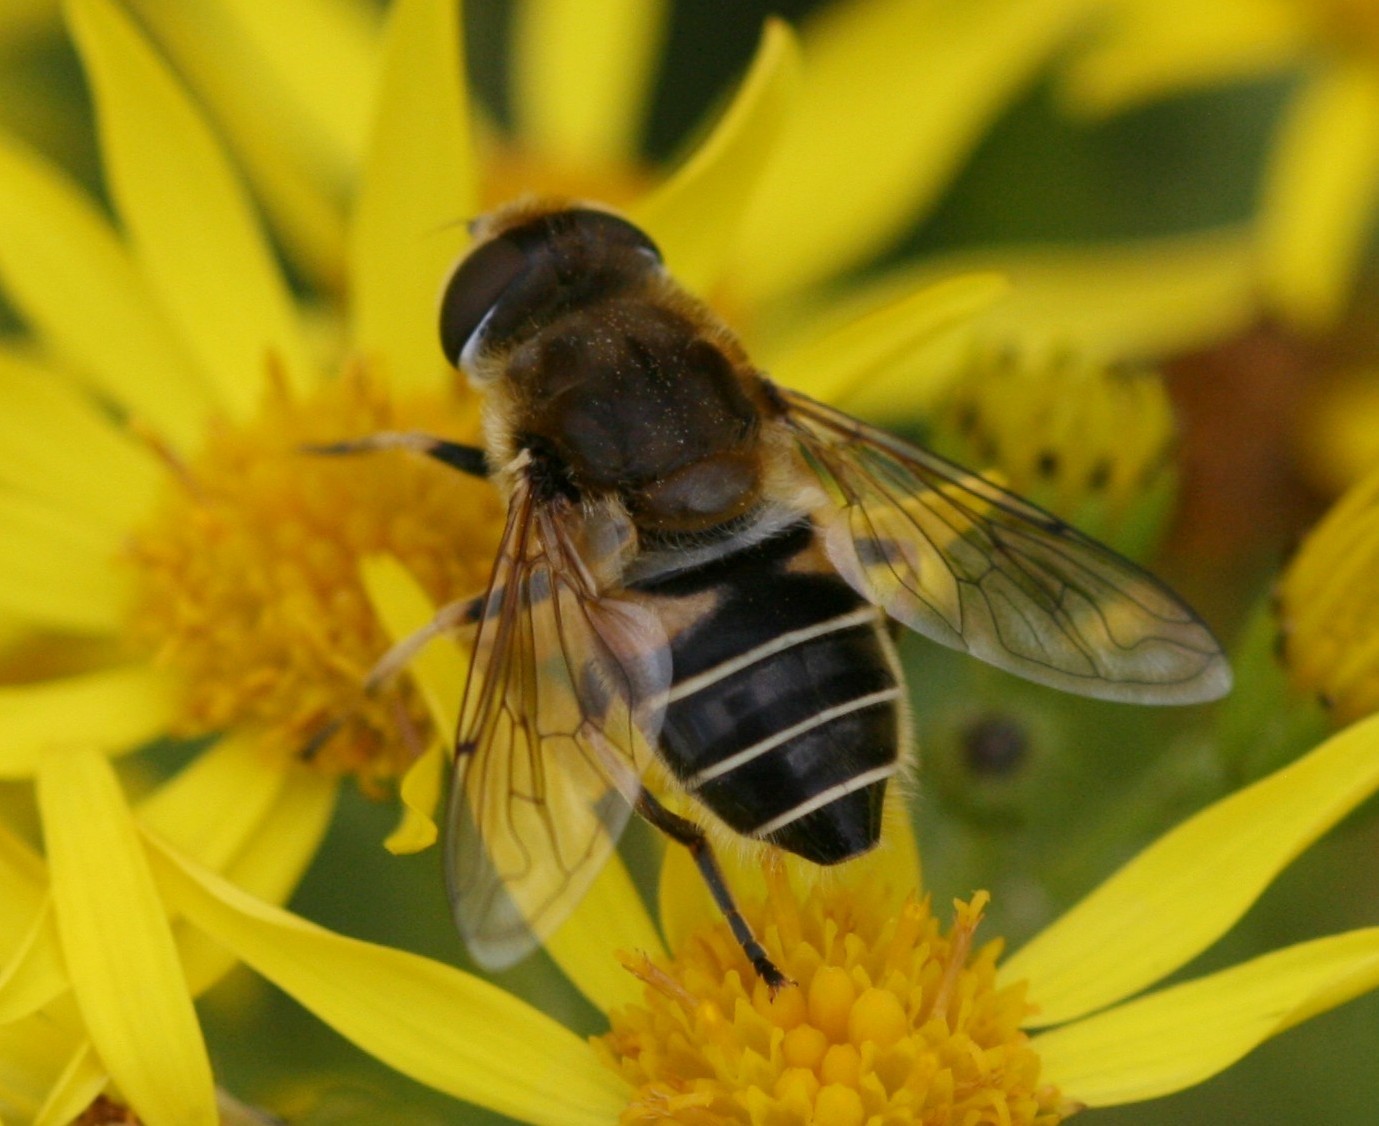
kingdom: Animalia
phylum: Arthropoda
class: Insecta
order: Diptera
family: Syrphidae
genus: Eristalis
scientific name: Eristalis nemorum
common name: Orange-spined drone fly
